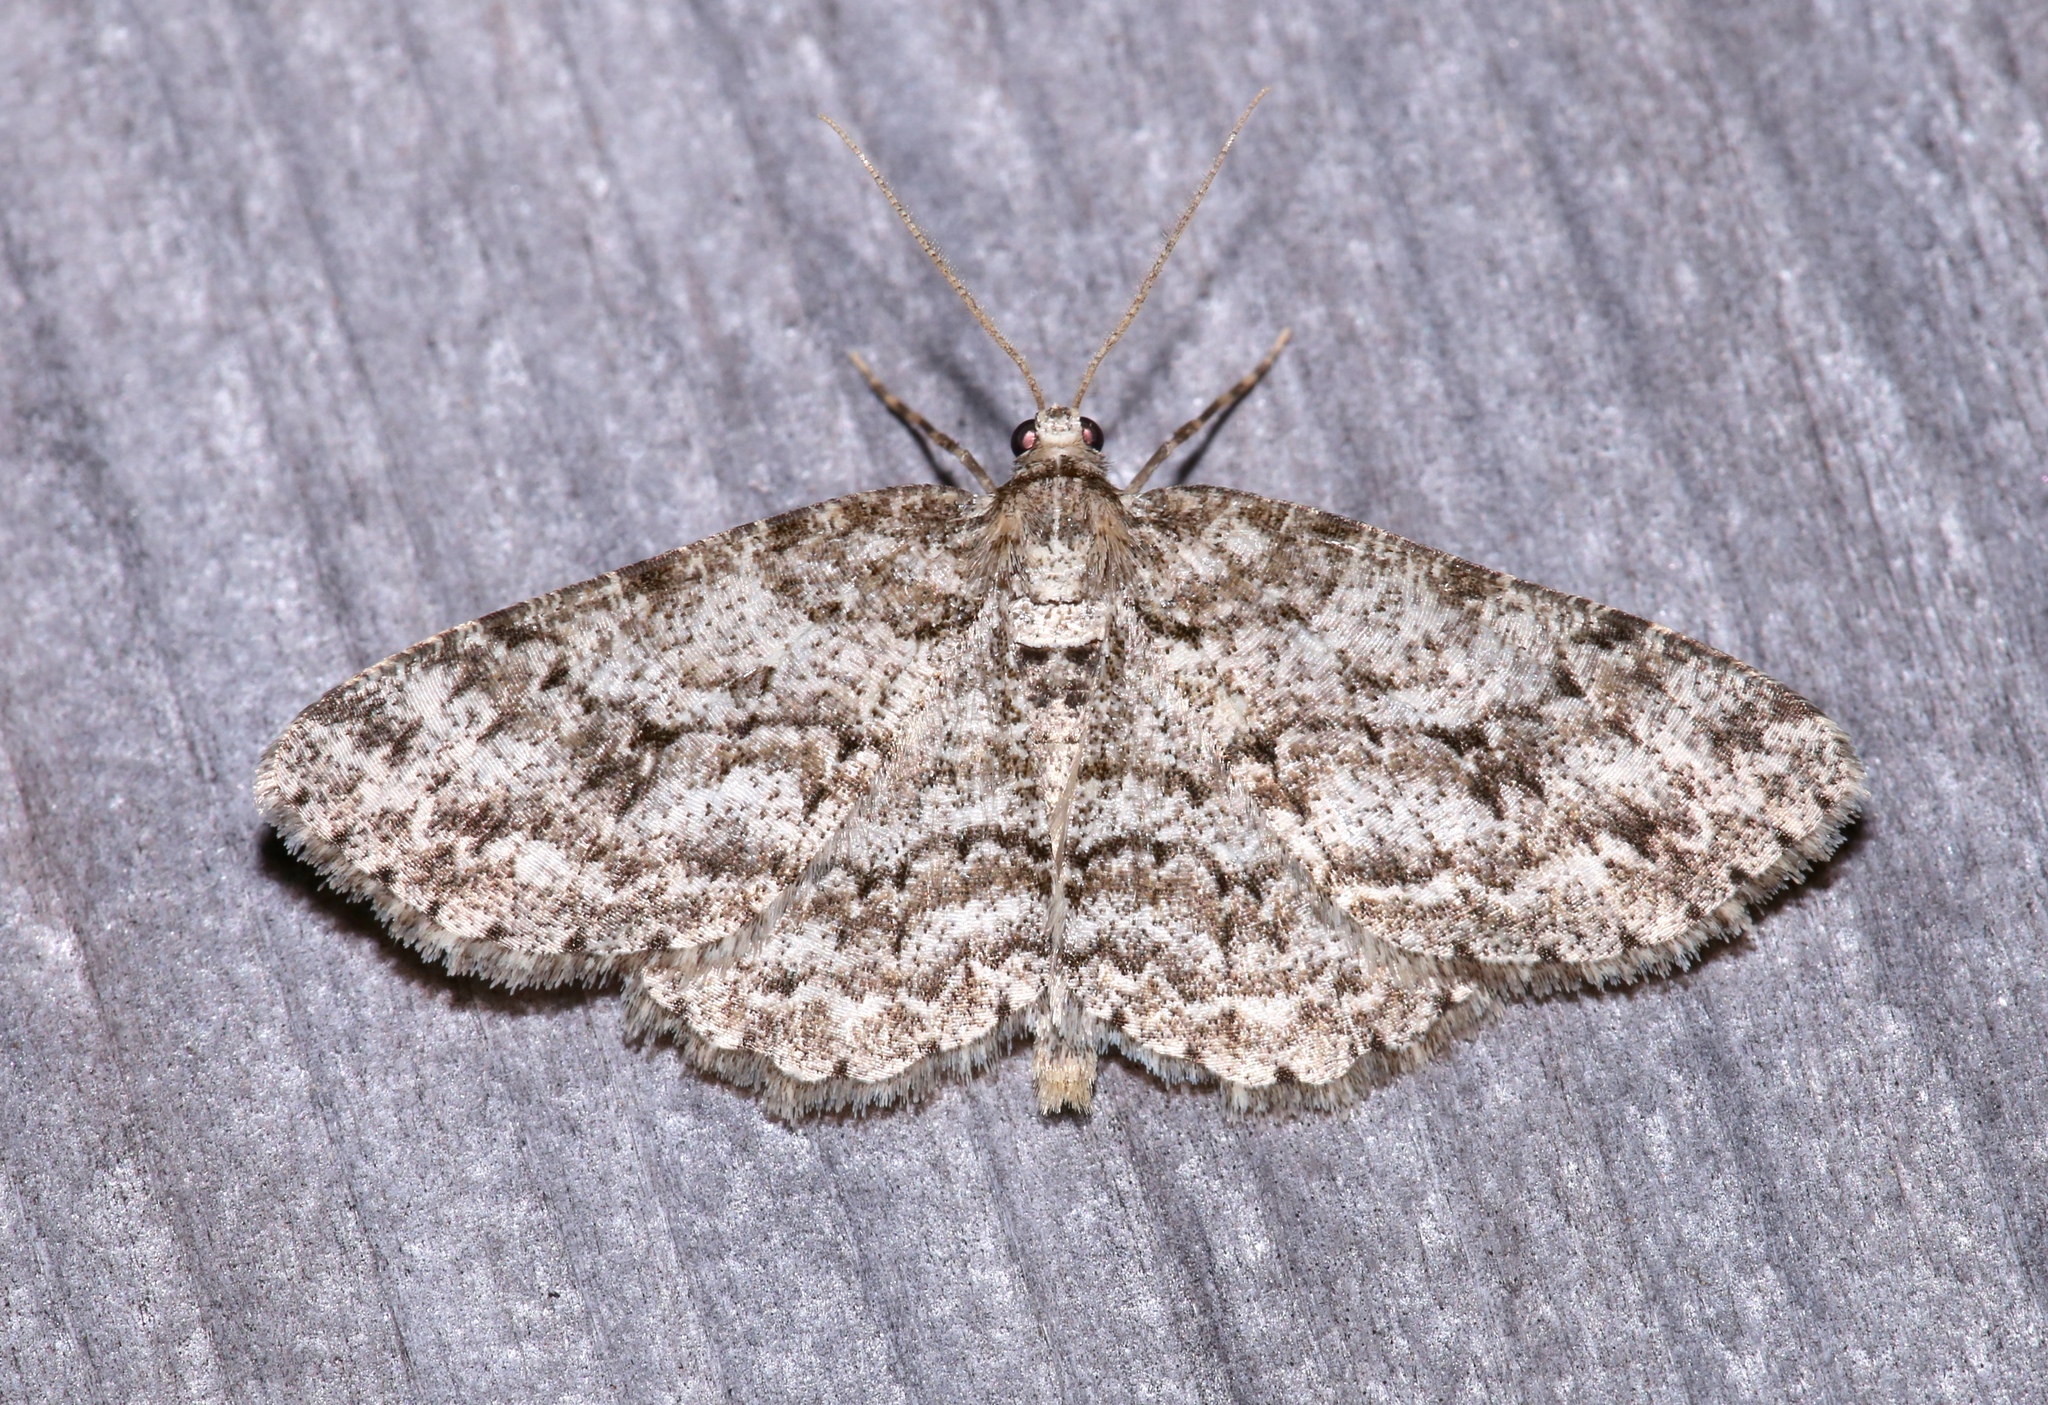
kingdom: Animalia
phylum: Arthropoda
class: Insecta
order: Lepidoptera
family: Geometridae
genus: Ectropis
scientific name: Ectropis crepuscularia
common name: Engrailed
